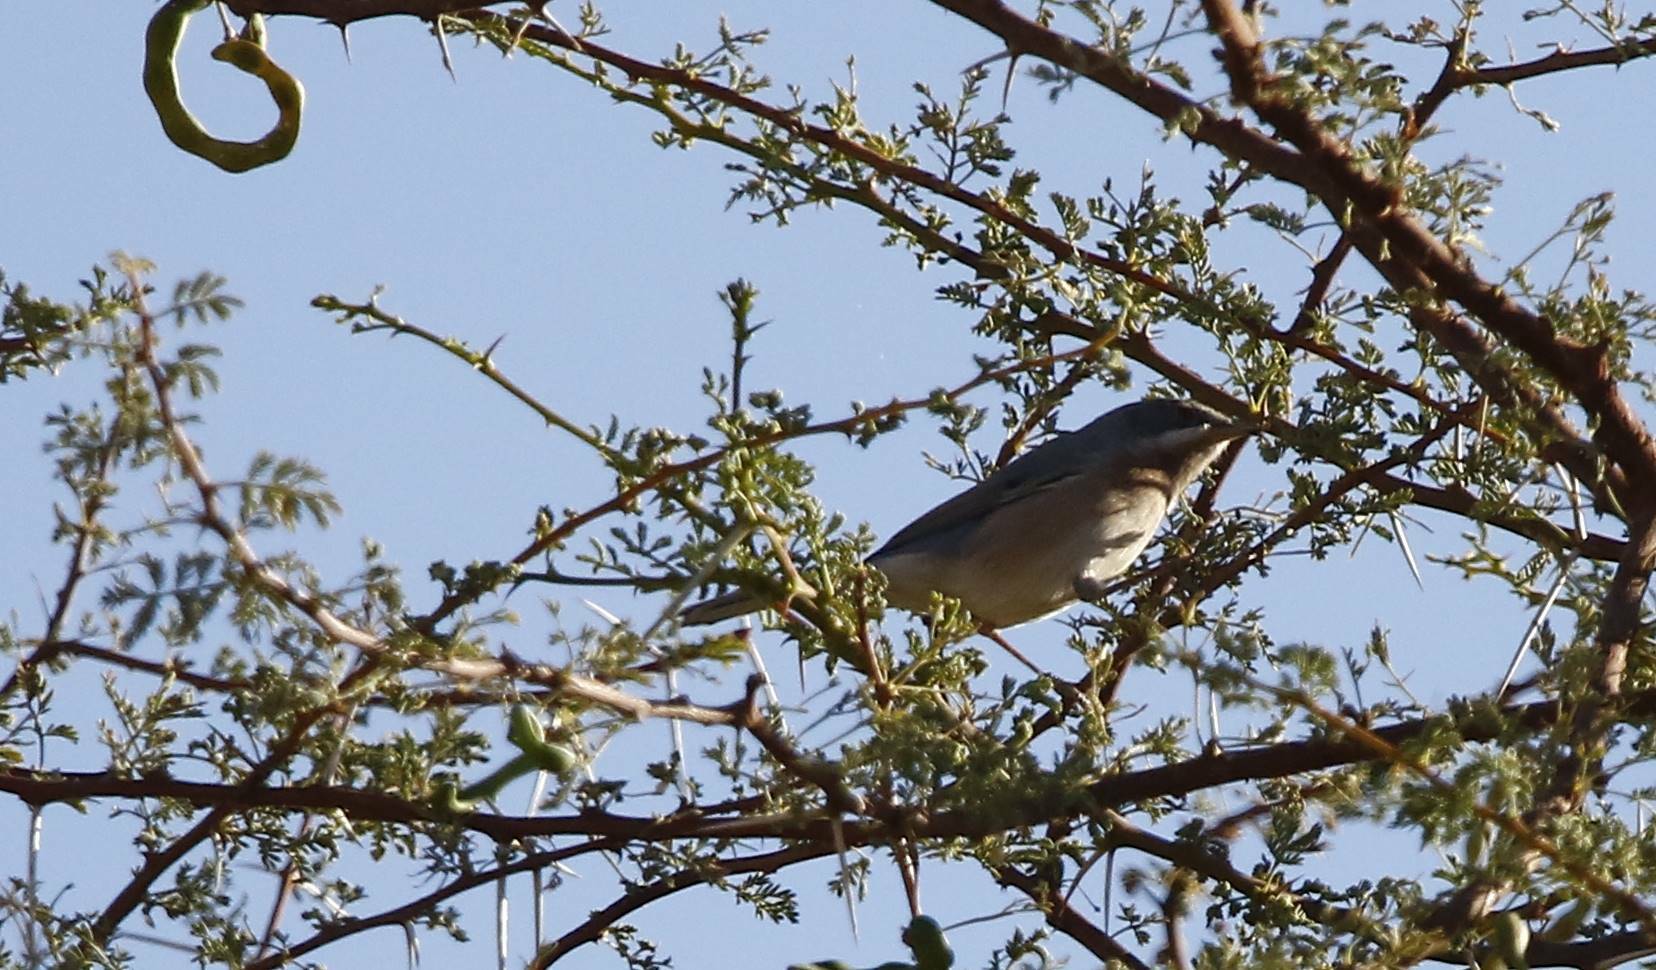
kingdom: Animalia
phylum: Chordata
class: Aves
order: Passeriformes
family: Sylviidae
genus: Curruca
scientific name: Curruca subalpina
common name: Moltoni's warbler
